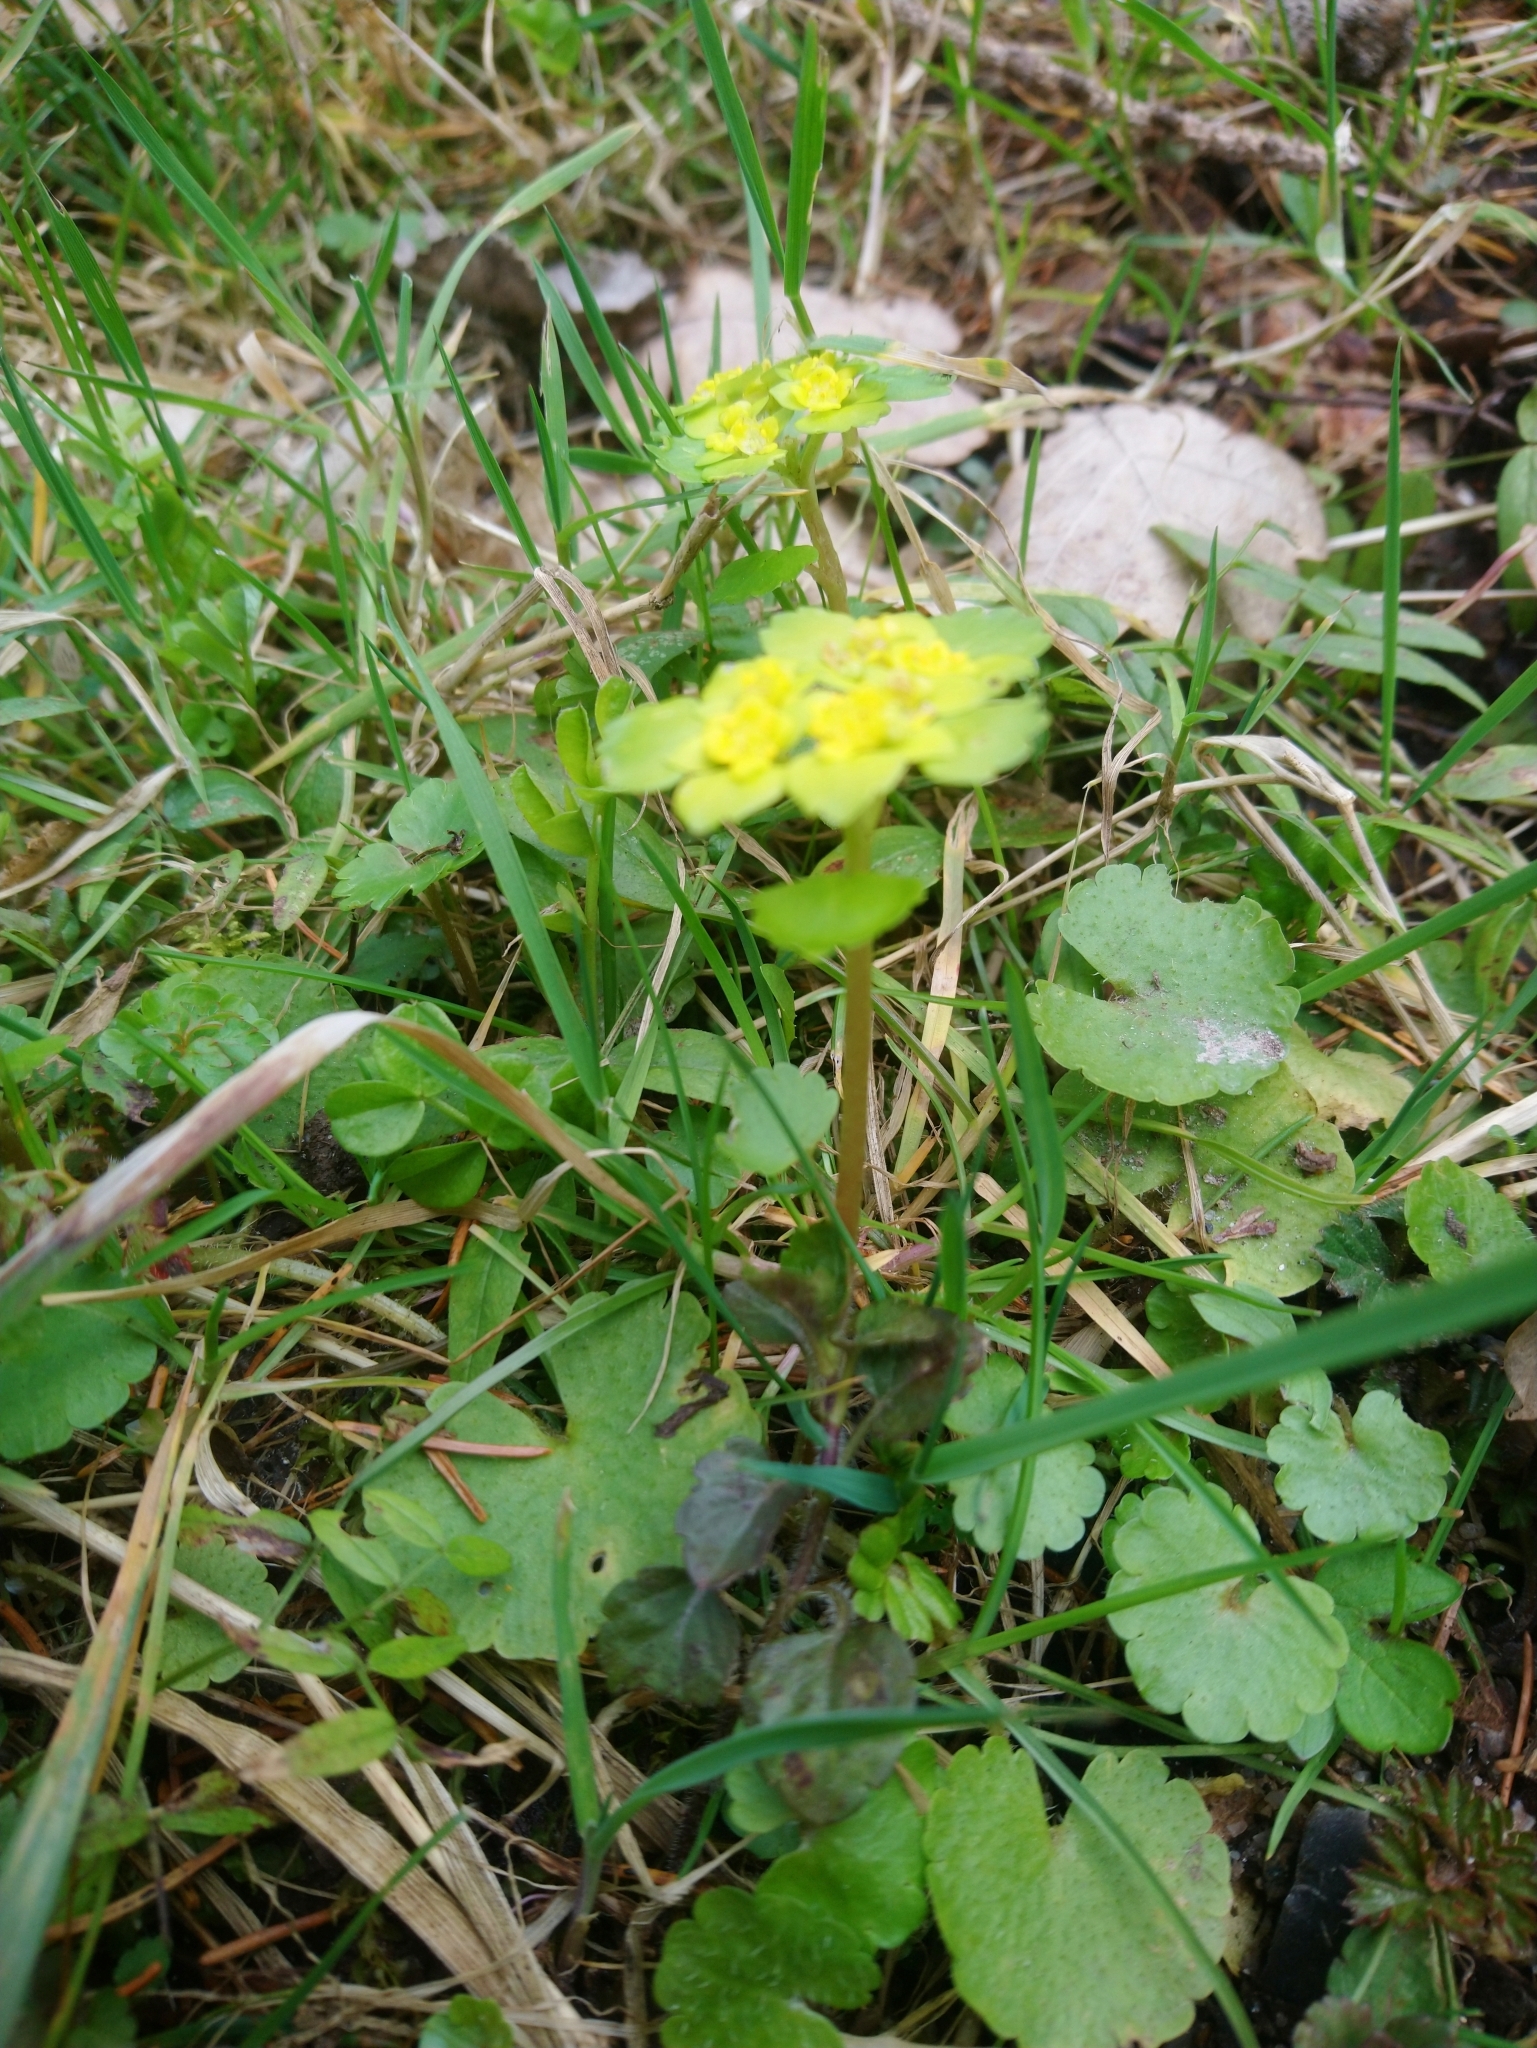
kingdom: Plantae
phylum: Tracheophyta
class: Magnoliopsida
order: Saxifragales
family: Saxifragaceae
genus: Chrysosplenium
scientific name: Chrysosplenium alternifolium
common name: Alternate-leaved golden-saxifrage
